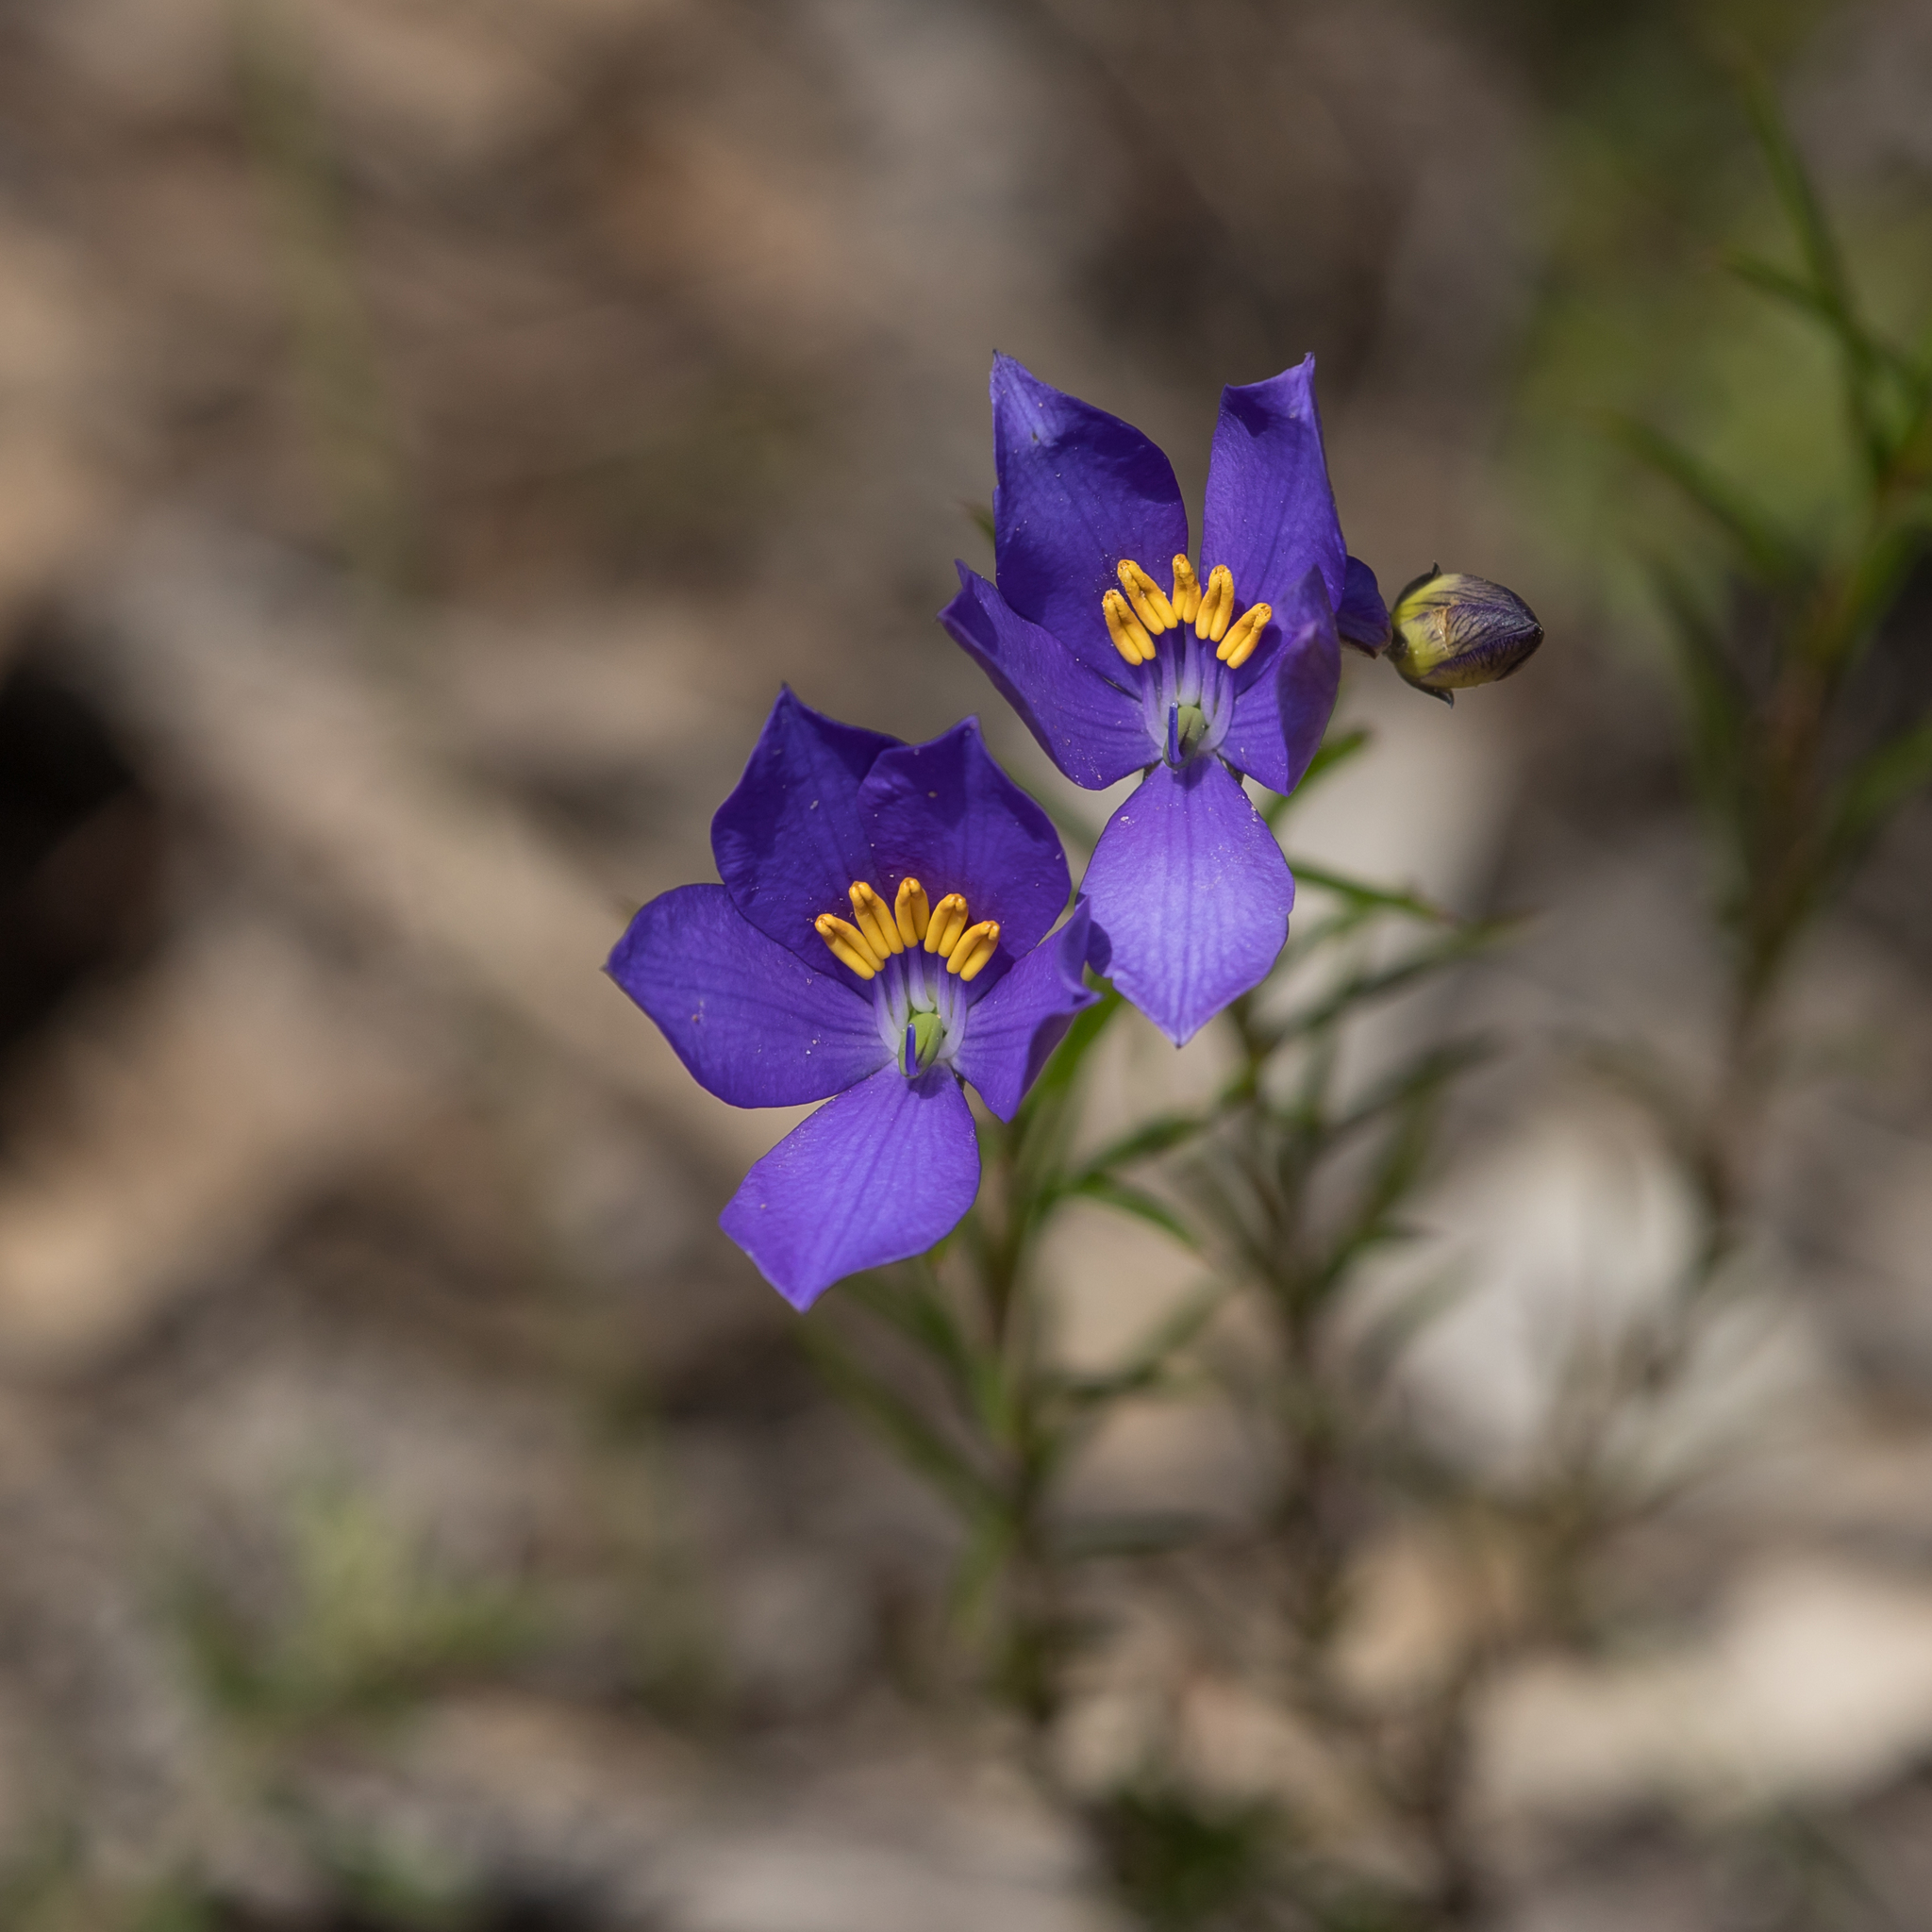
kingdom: Plantae
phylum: Tracheophyta
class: Magnoliopsida
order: Apiales
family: Pittosporaceae
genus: Cheiranthera
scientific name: Cheiranthera alternifolia
